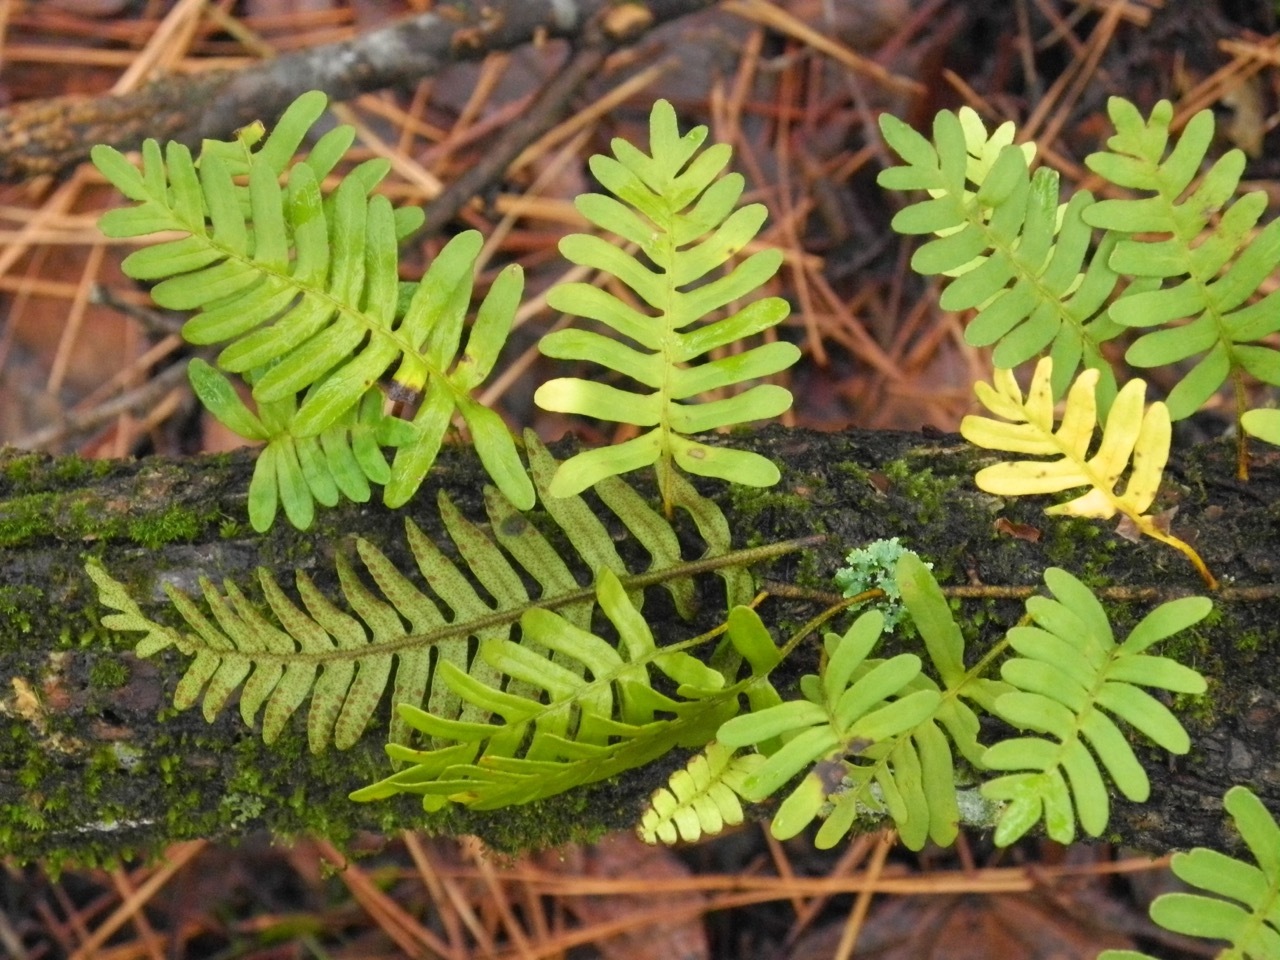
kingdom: Plantae
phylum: Tracheophyta
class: Polypodiopsida
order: Polypodiales
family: Polypodiaceae
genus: Pleopeltis
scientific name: Pleopeltis michauxiana
